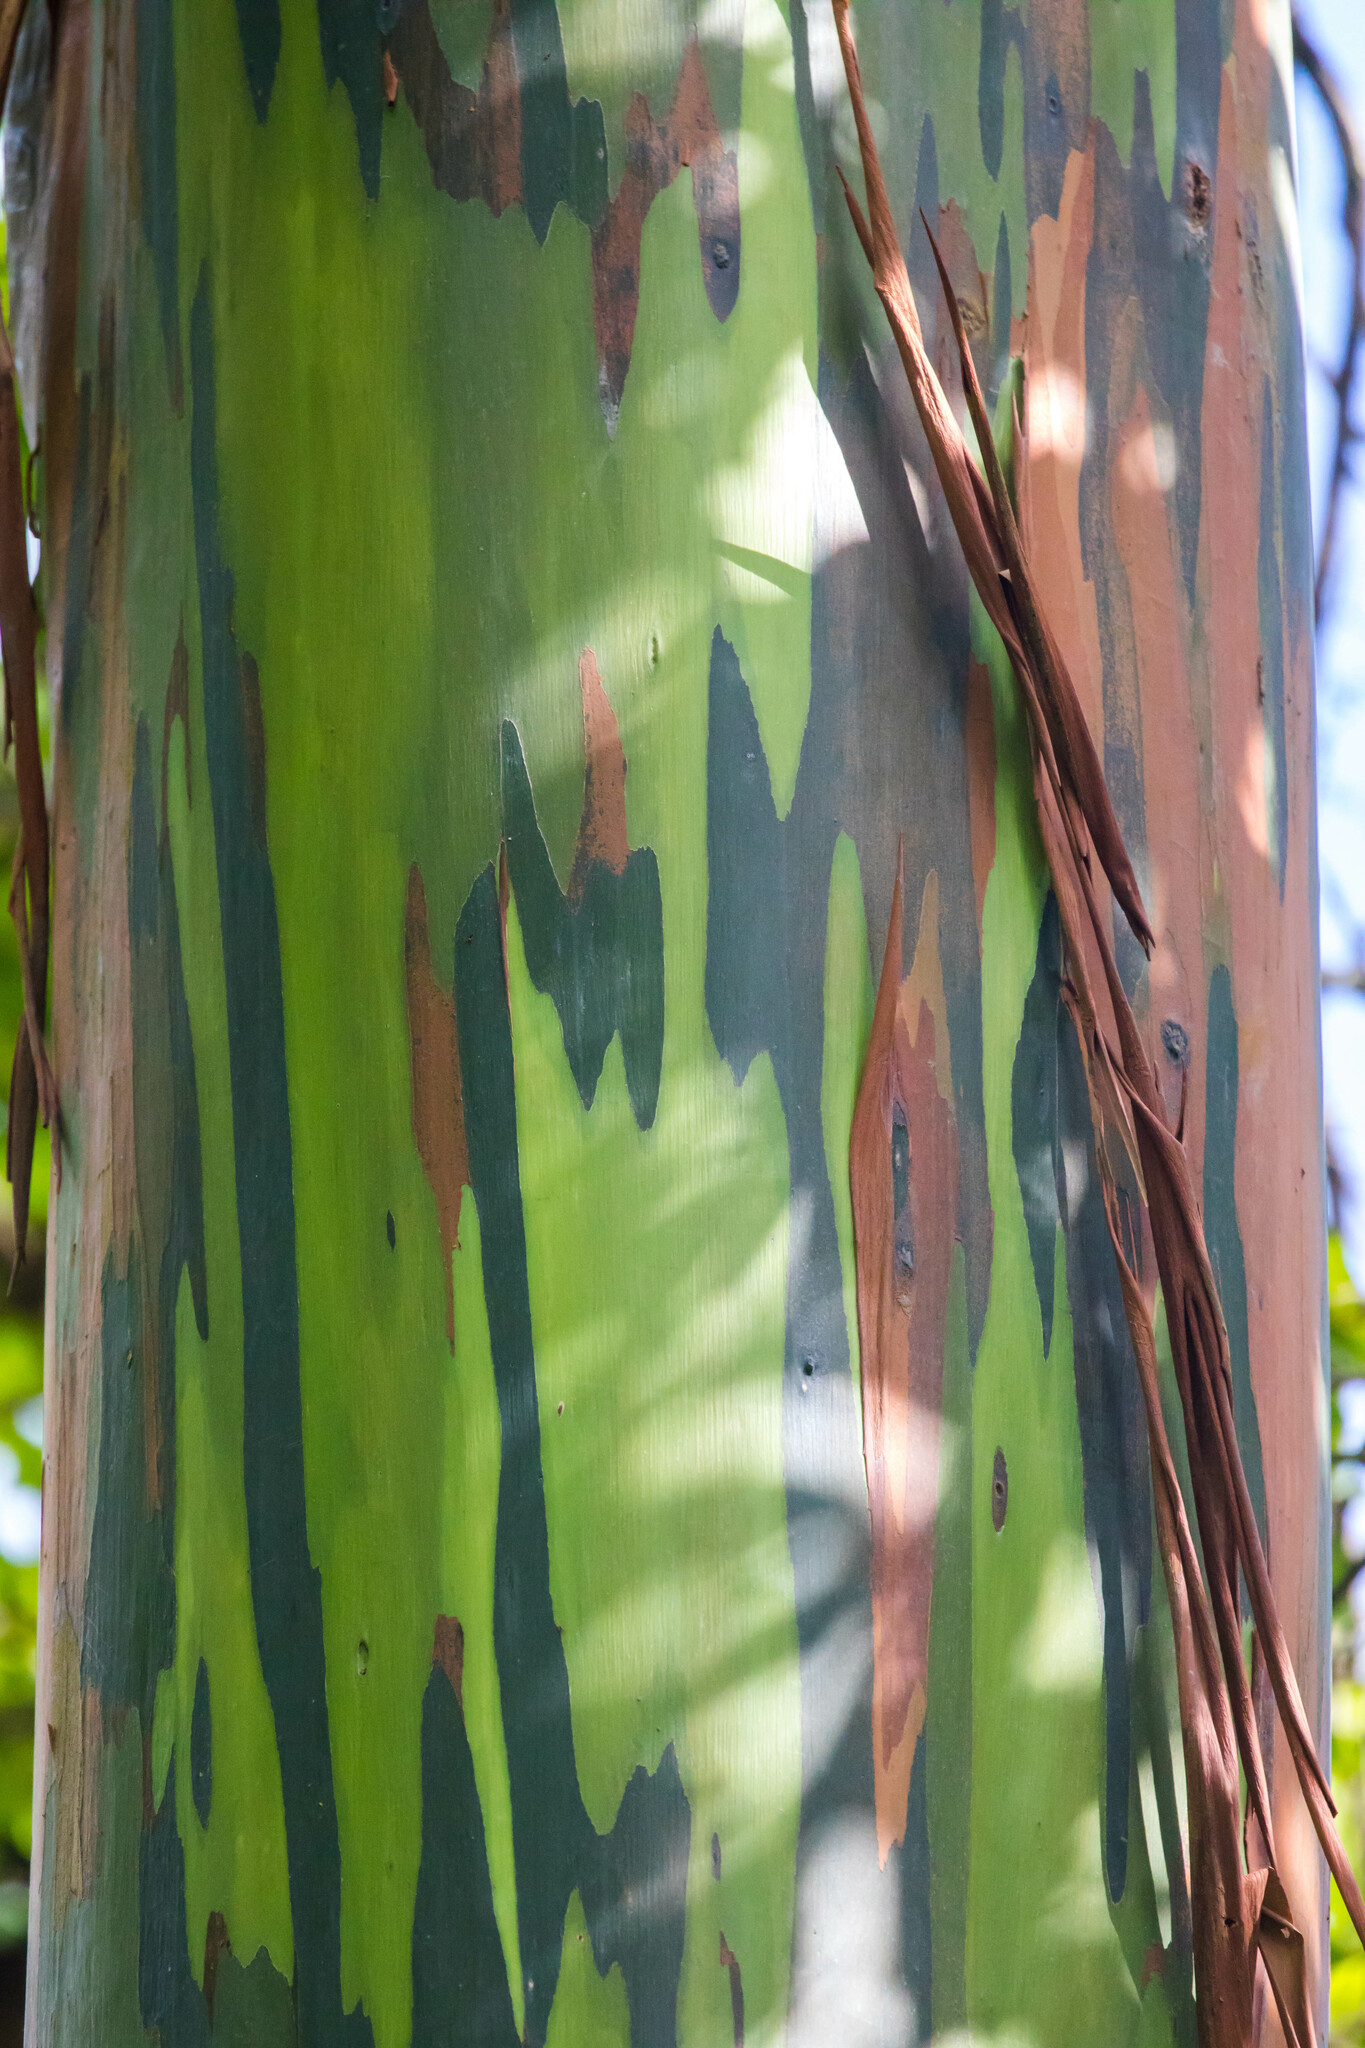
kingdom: Plantae
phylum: Tracheophyta
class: Magnoliopsida
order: Myrtales
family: Myrtaceae
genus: Eucalyptus
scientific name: Eucalyptus deglupta
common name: Mindanao gum
